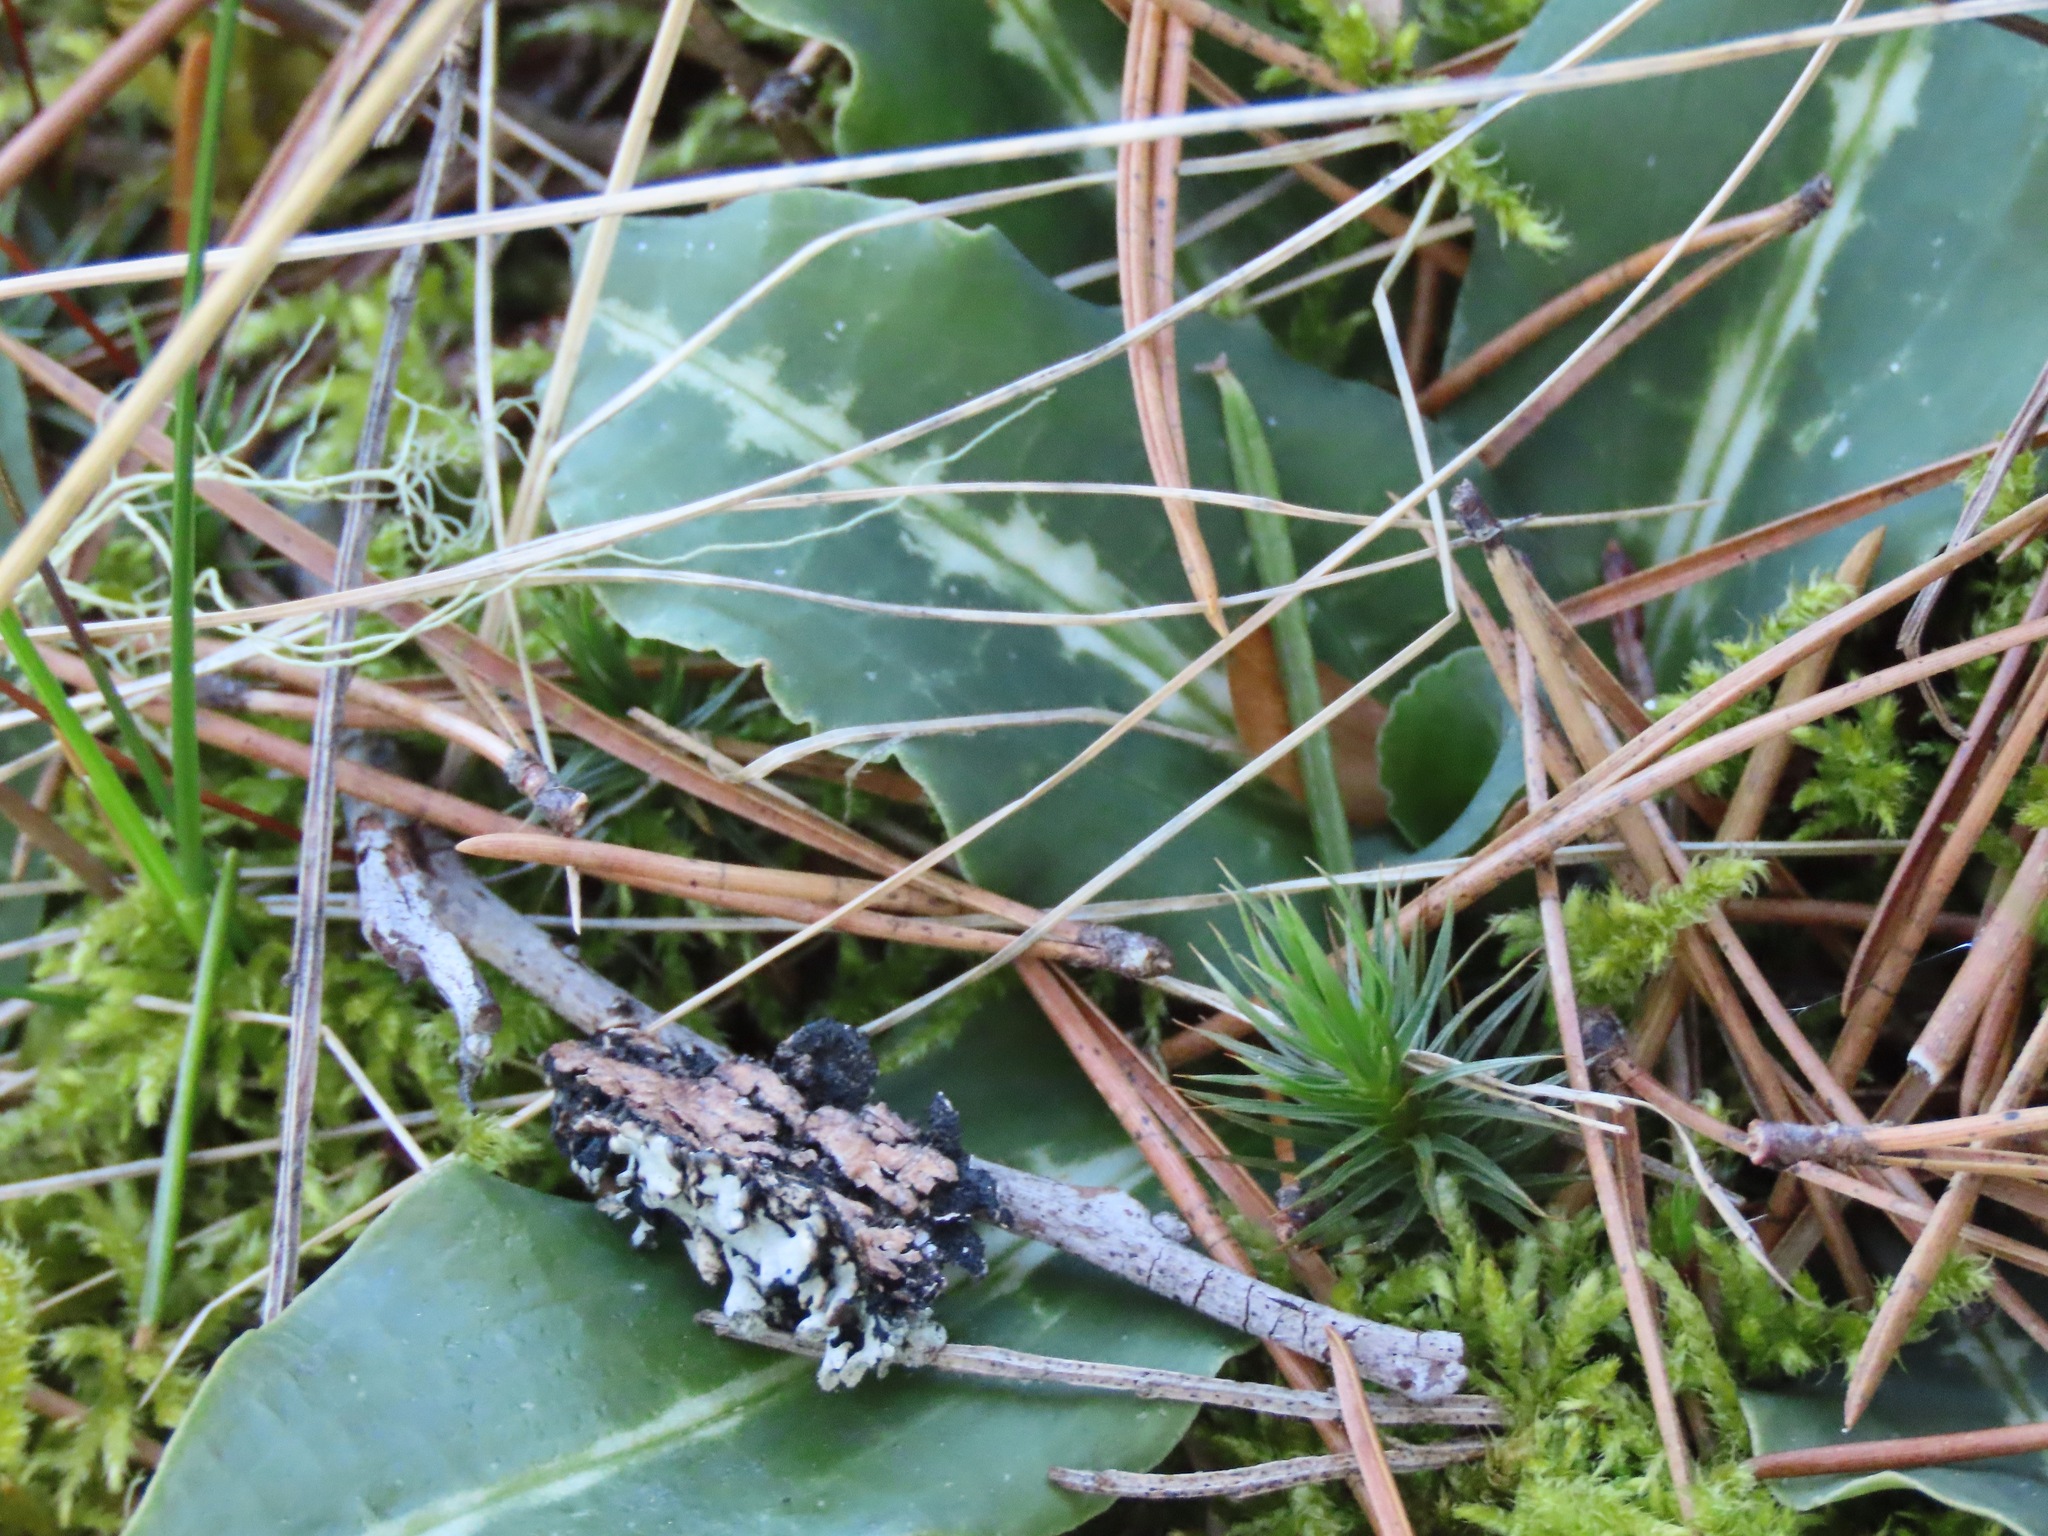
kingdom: Plantae
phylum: Tracheophyta
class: Liliopsida
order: Asparagales
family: Orchidaceae
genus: Goodyera
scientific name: Goodyera oblongifolia
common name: Giant rattlesnake-plantain
